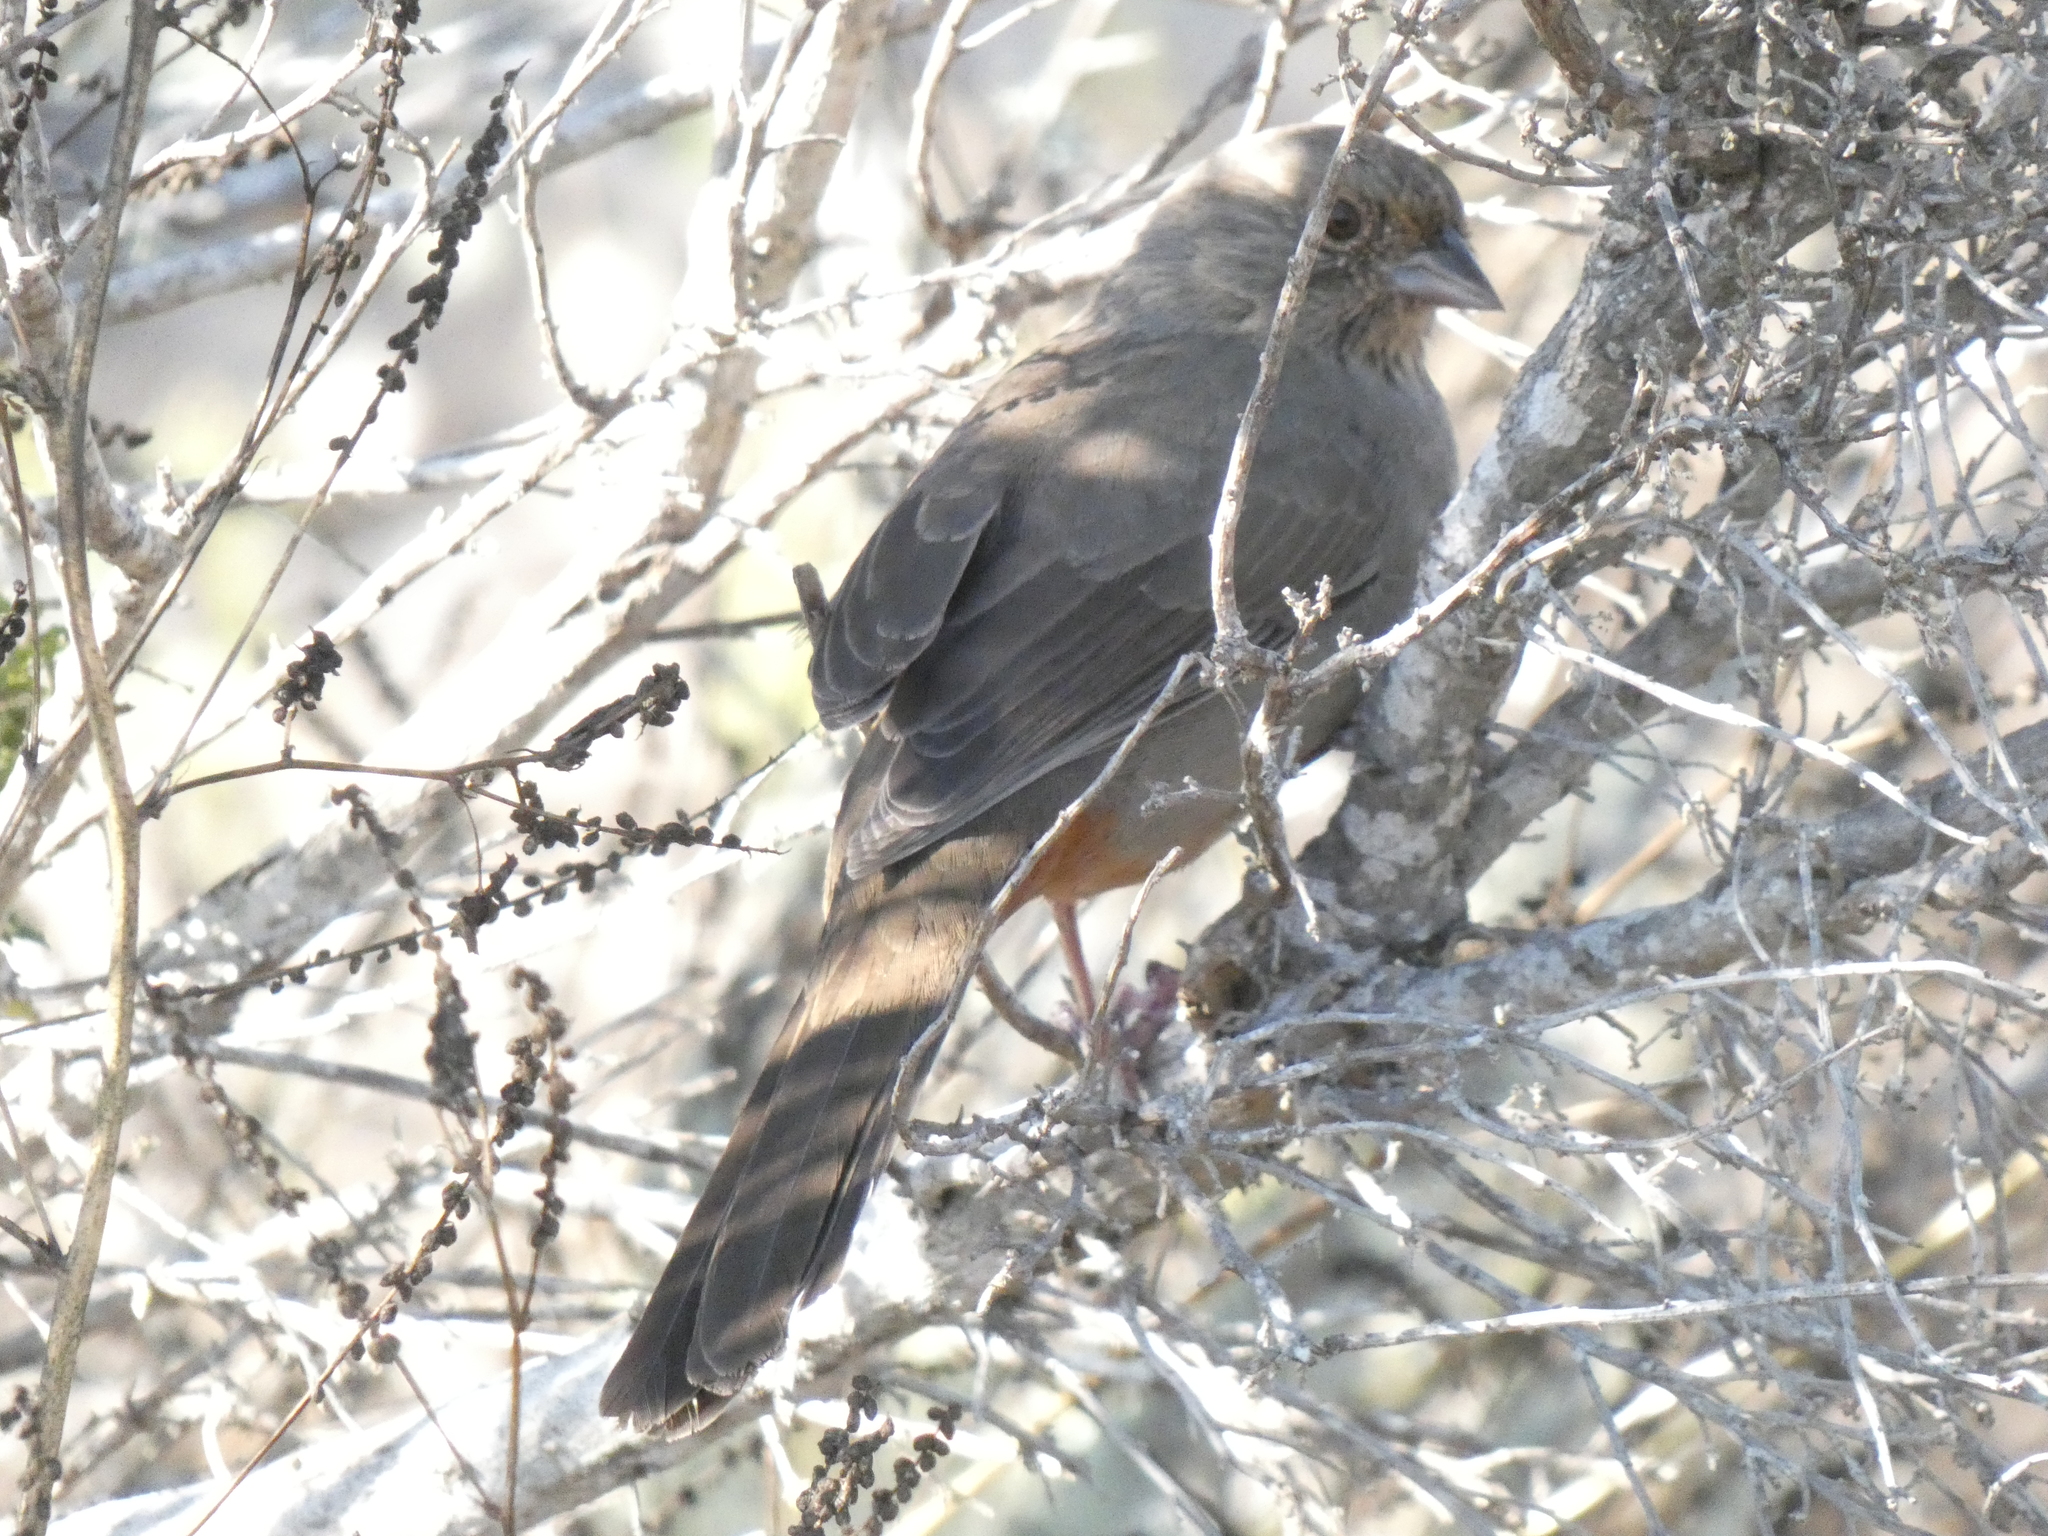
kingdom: Animalia
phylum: Chordata
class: Aves
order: Passeriformes
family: Passerellidae
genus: Melozone
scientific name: Melozone crissalis
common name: California towhee
